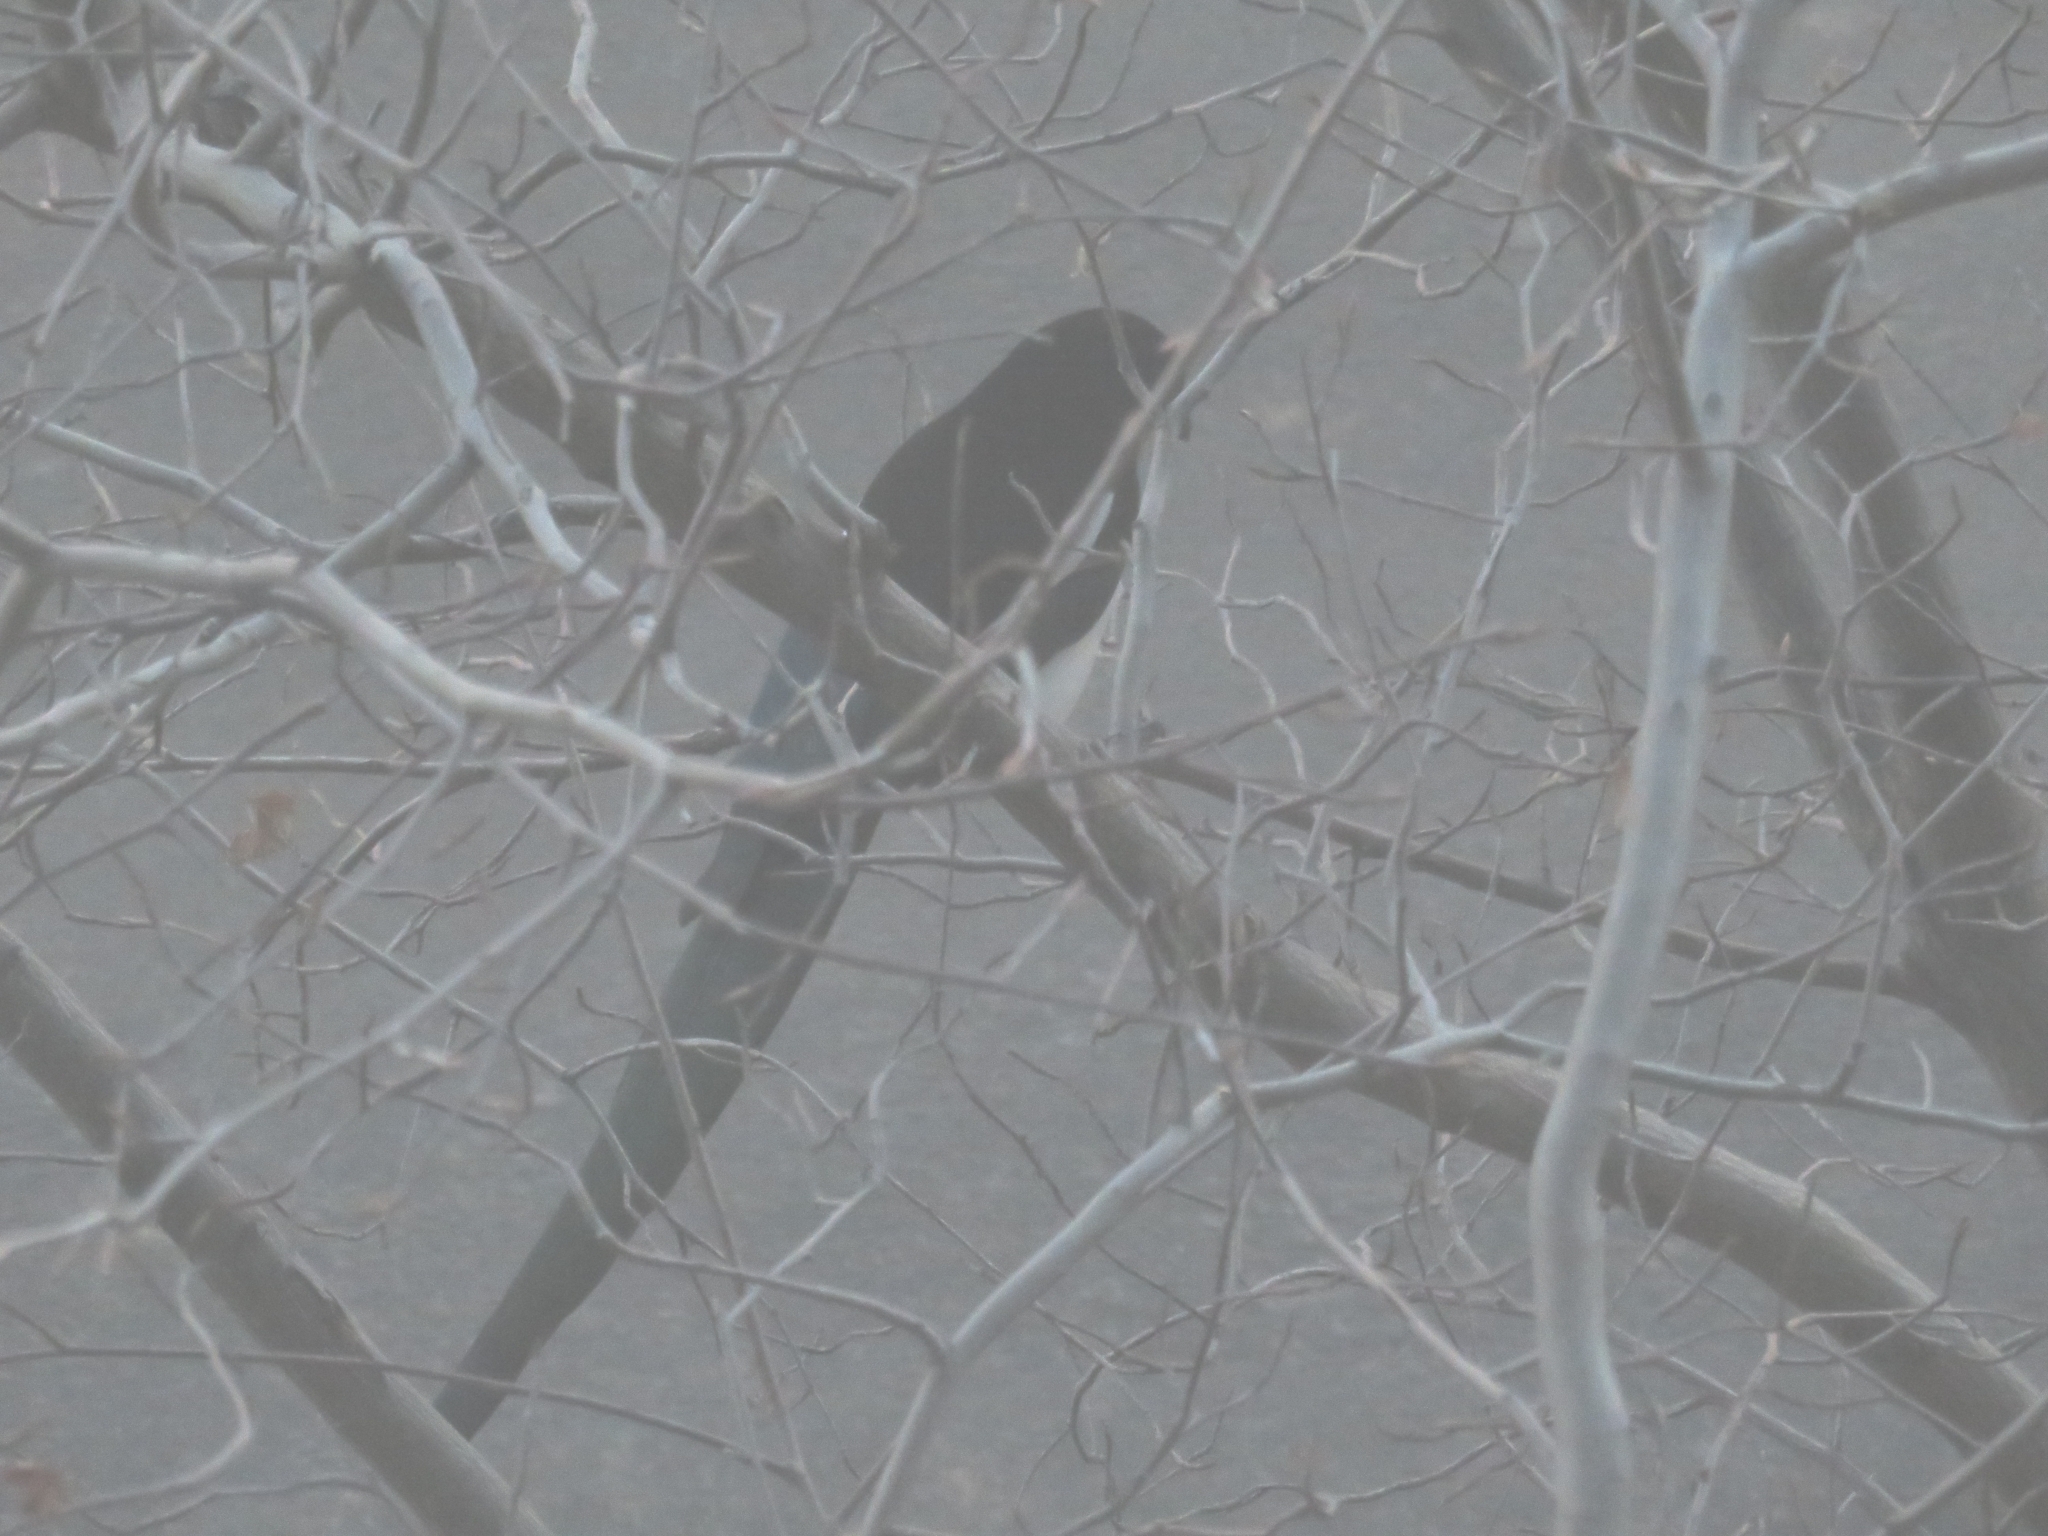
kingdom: Animalia
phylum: Chordata
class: Aves
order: Passeriformes
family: Corvidae
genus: Pica
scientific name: Pica hudsonia
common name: Black-billed magpie
